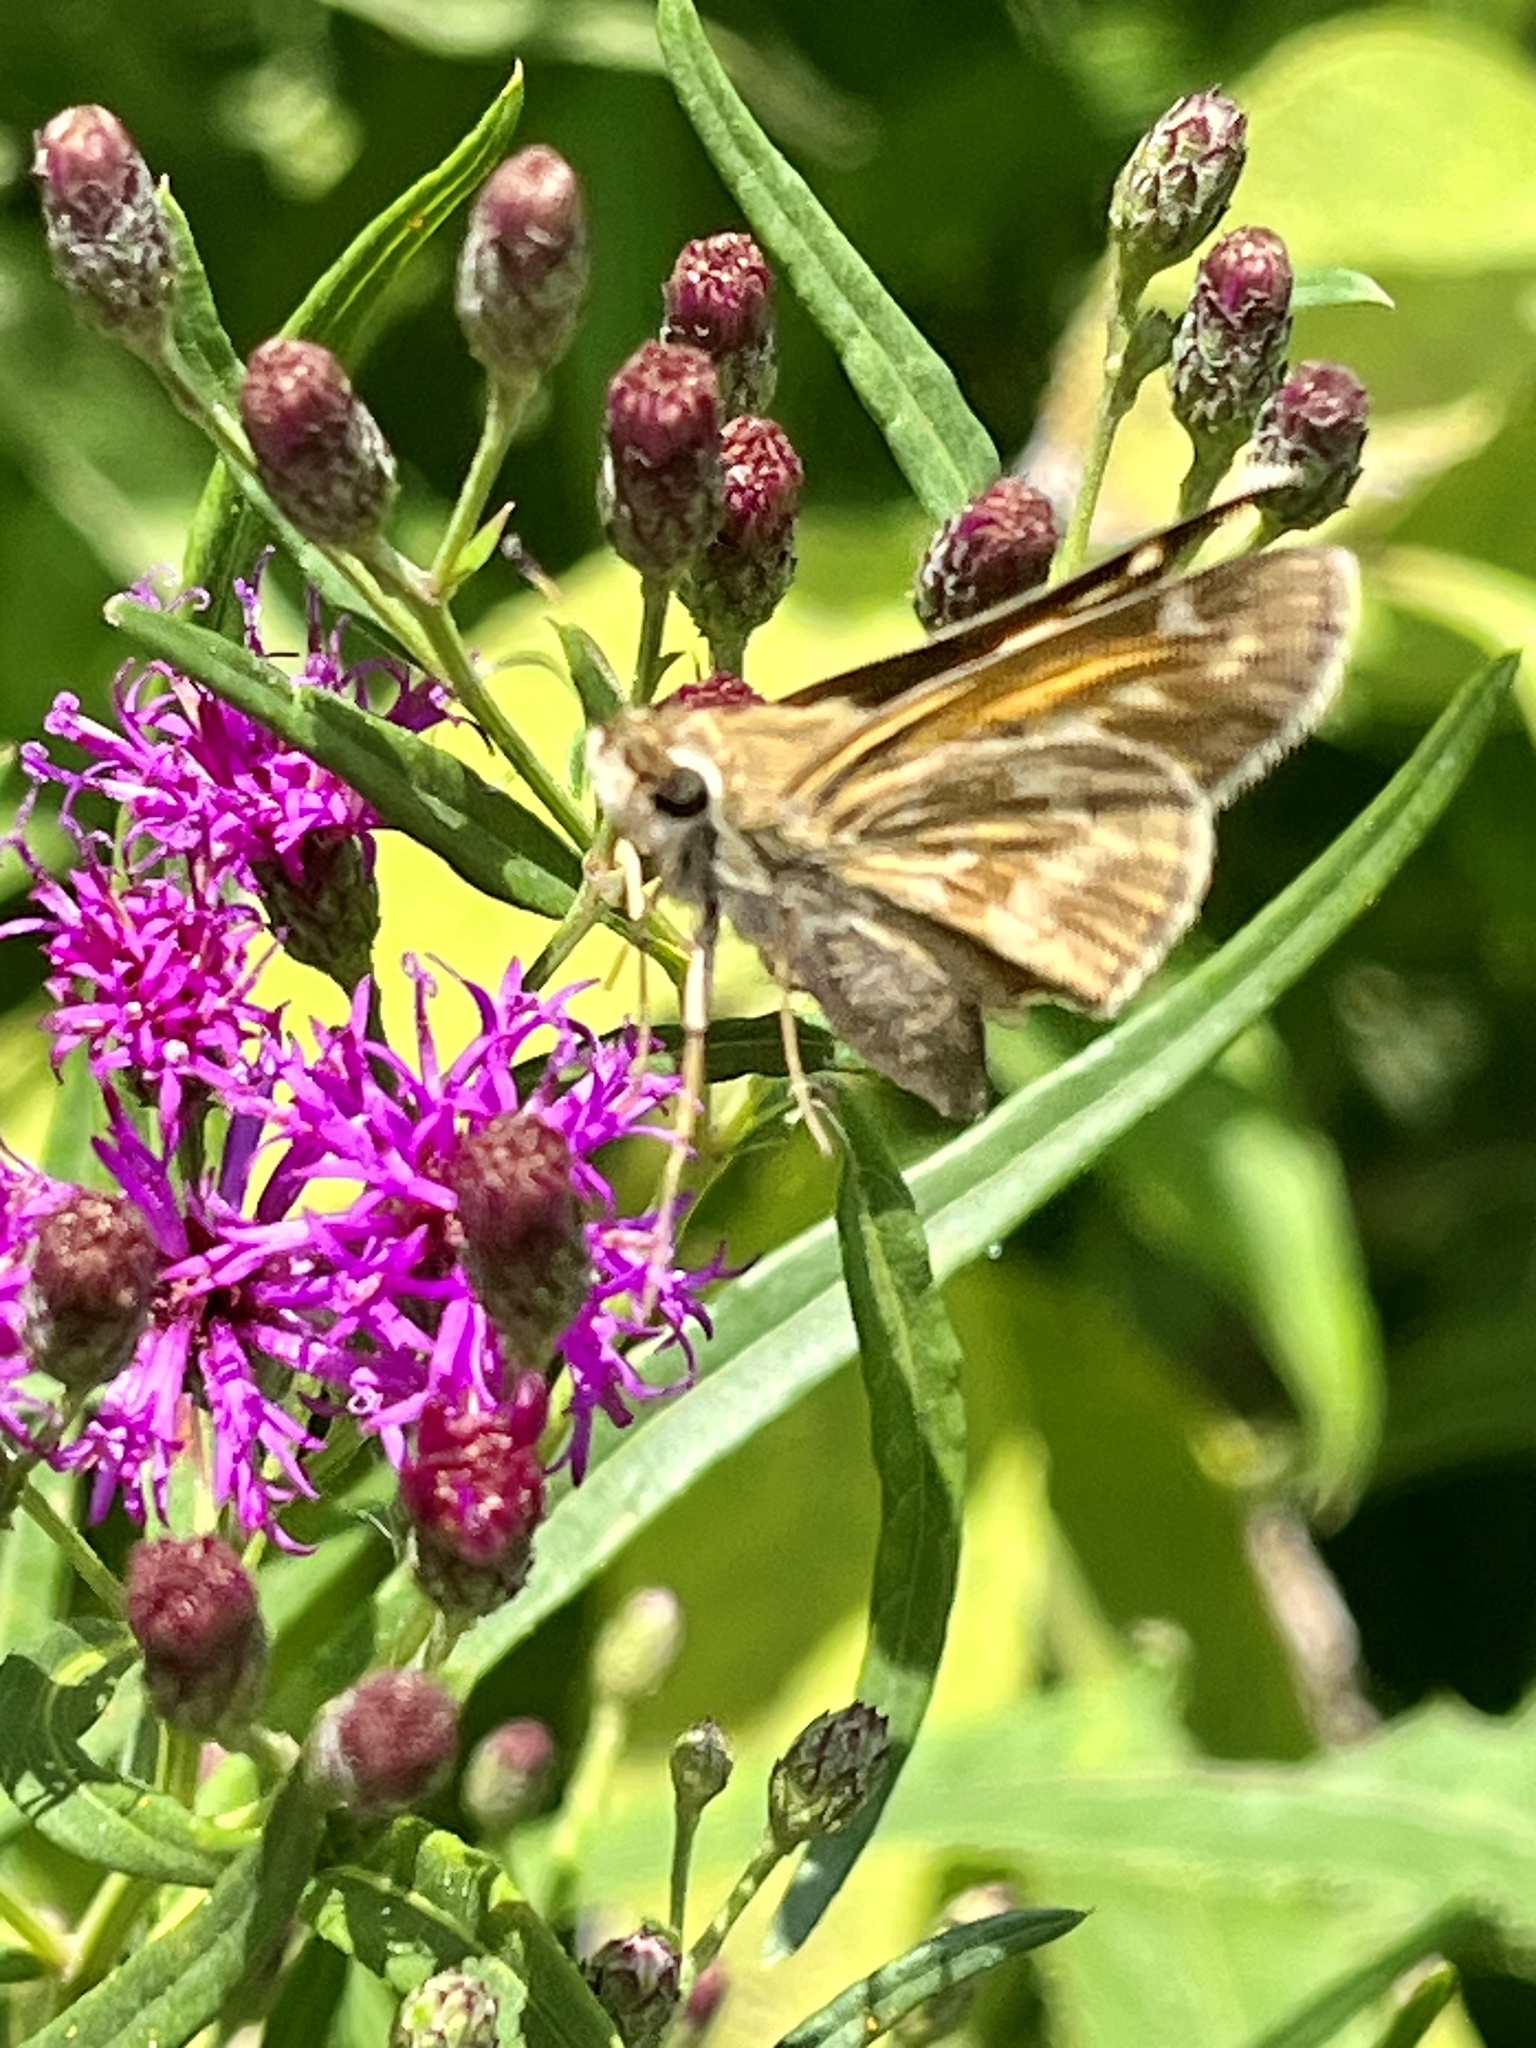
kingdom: Animalia
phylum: Arthropoda
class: Insecta
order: Lepidoptera
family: Hesperiidae
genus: Atalopedes
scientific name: Atalopedes
